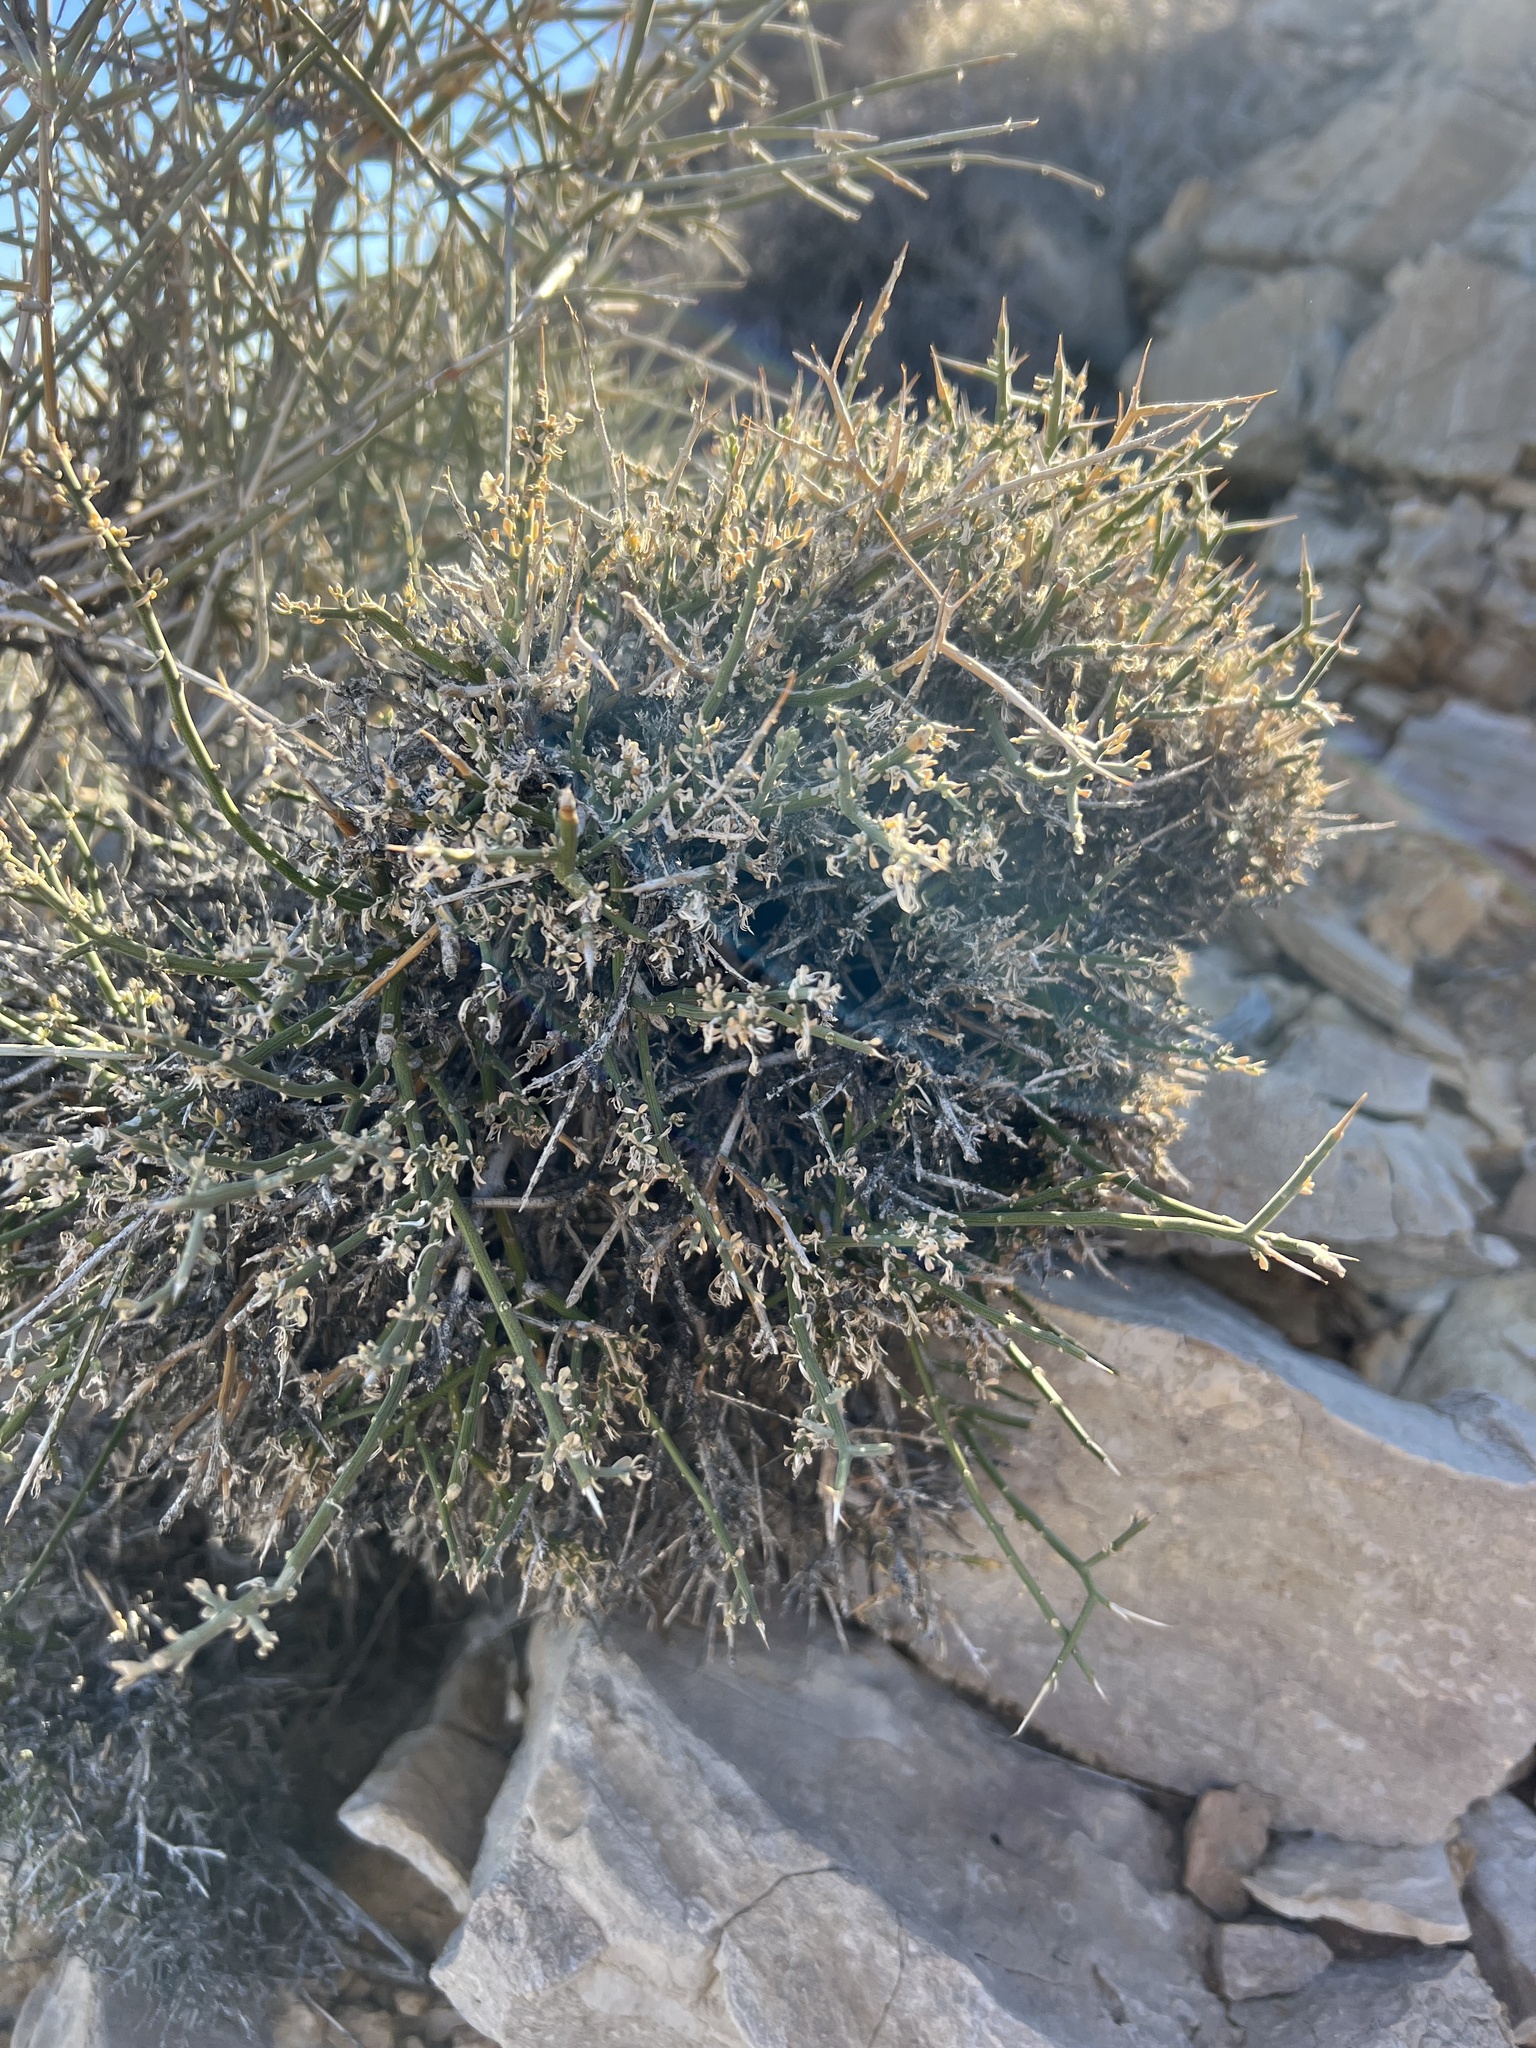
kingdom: Plantae
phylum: Tracheophyta
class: Magnoliopsida
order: Lamiales
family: Oleaceae
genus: Menodora
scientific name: Menodora spinescens
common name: Spiny menodora
